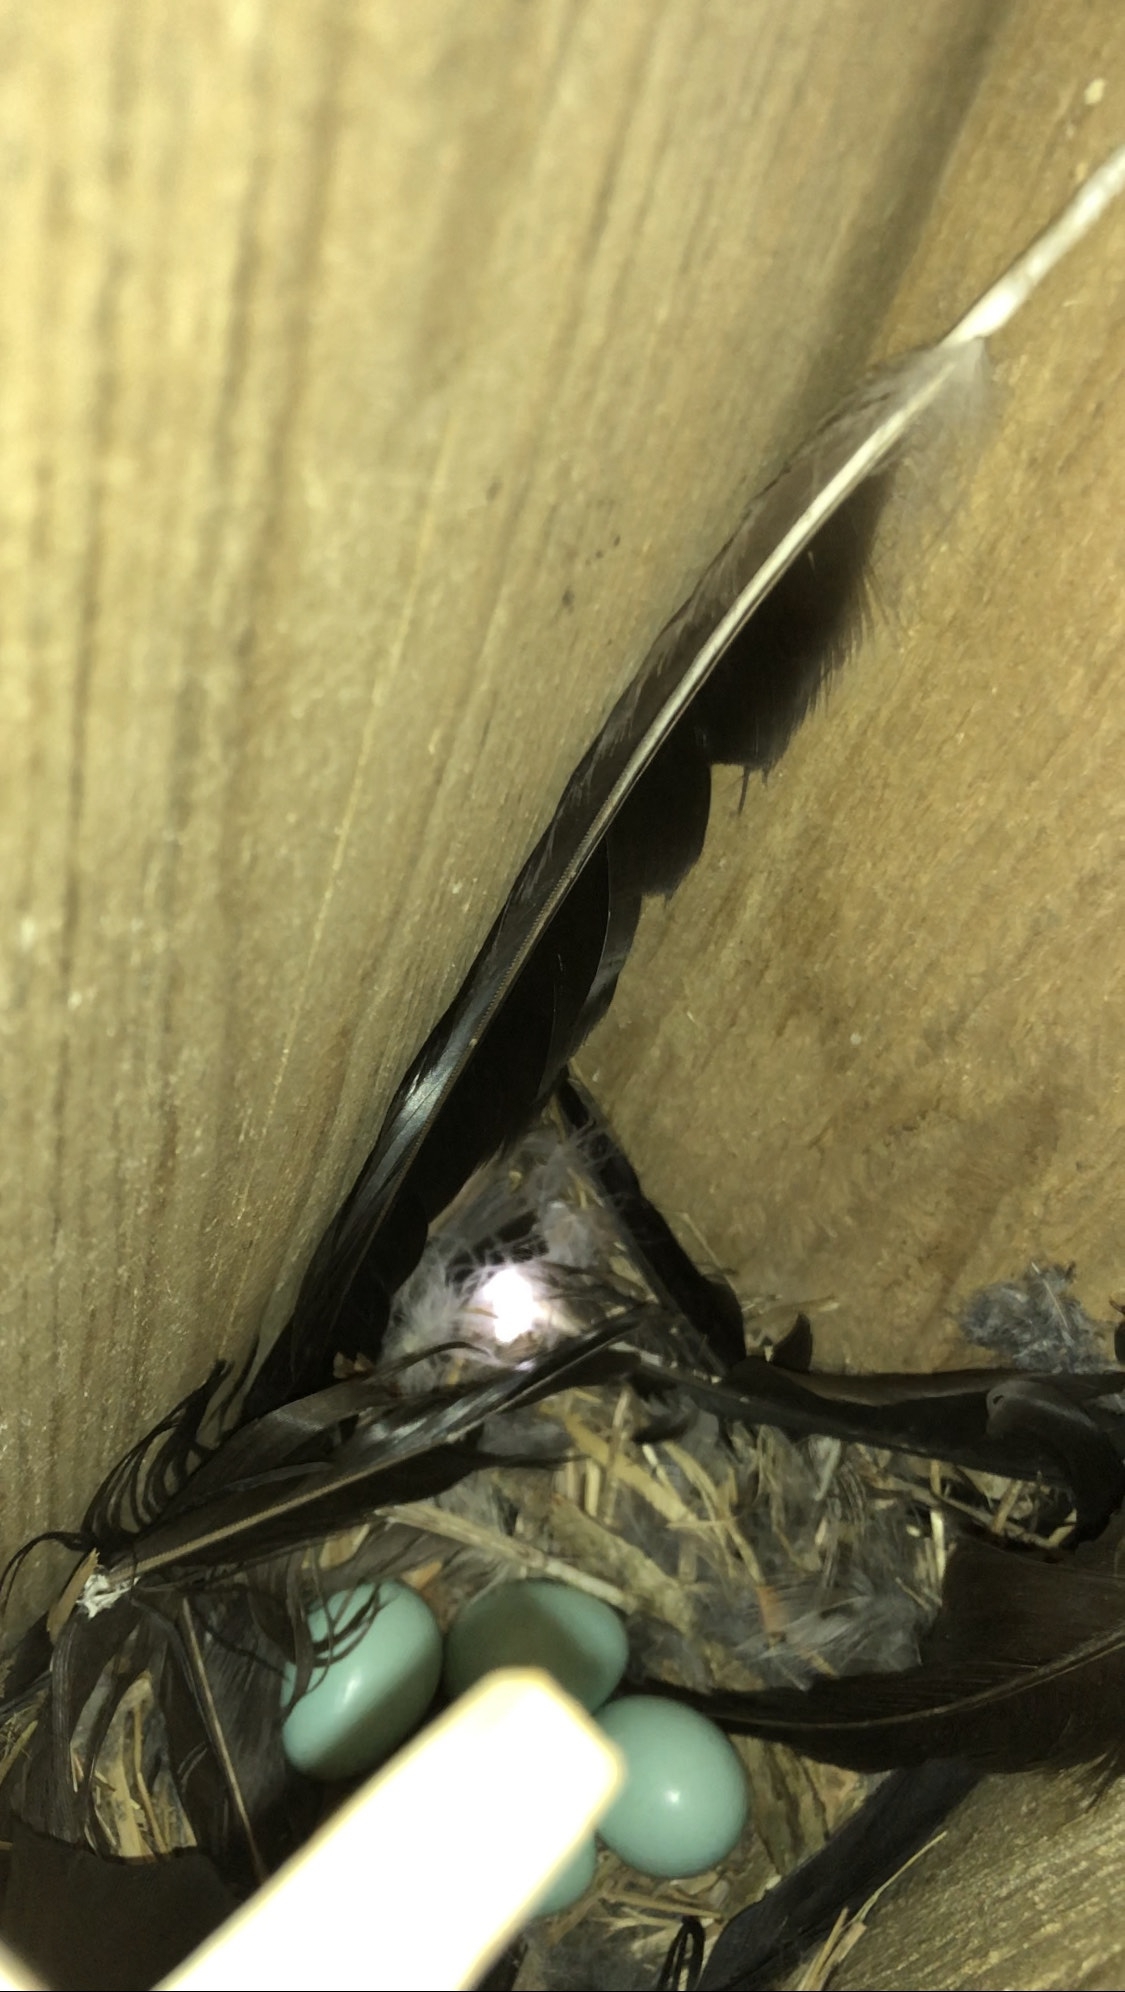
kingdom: Animalia
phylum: Chordata
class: Aves
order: Passeriformes
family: Sturnidae
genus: Sturnus
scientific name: Sturnus vulgaris
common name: Common starling
